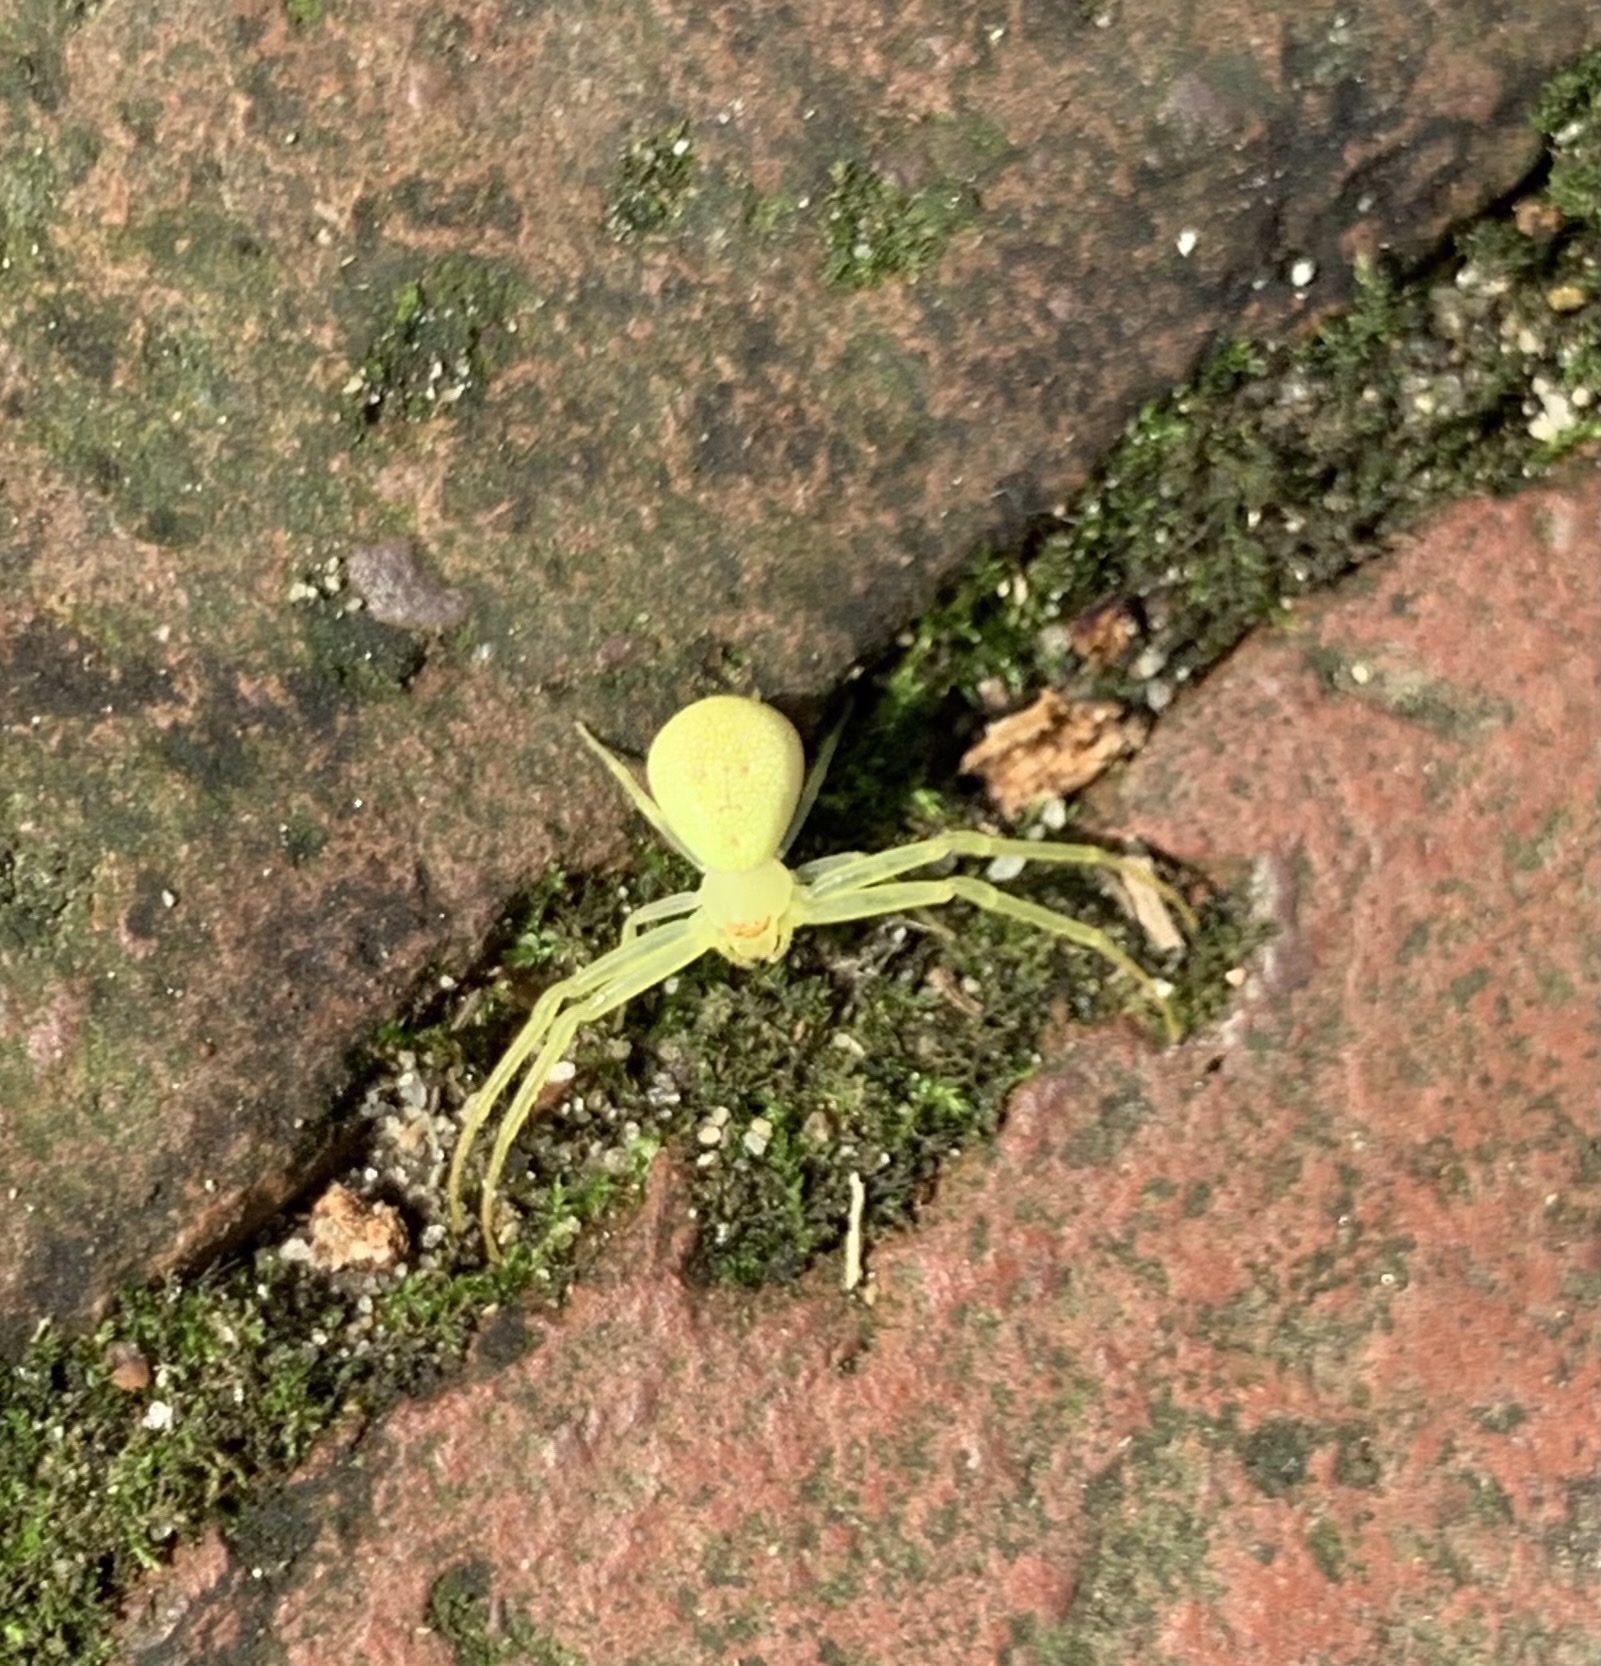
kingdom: Animalia
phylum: Arthropoda
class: Arachnida
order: Araneae
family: Thomisidae
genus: Misumessus
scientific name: Misumessus oblongus
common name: American green crab spider
